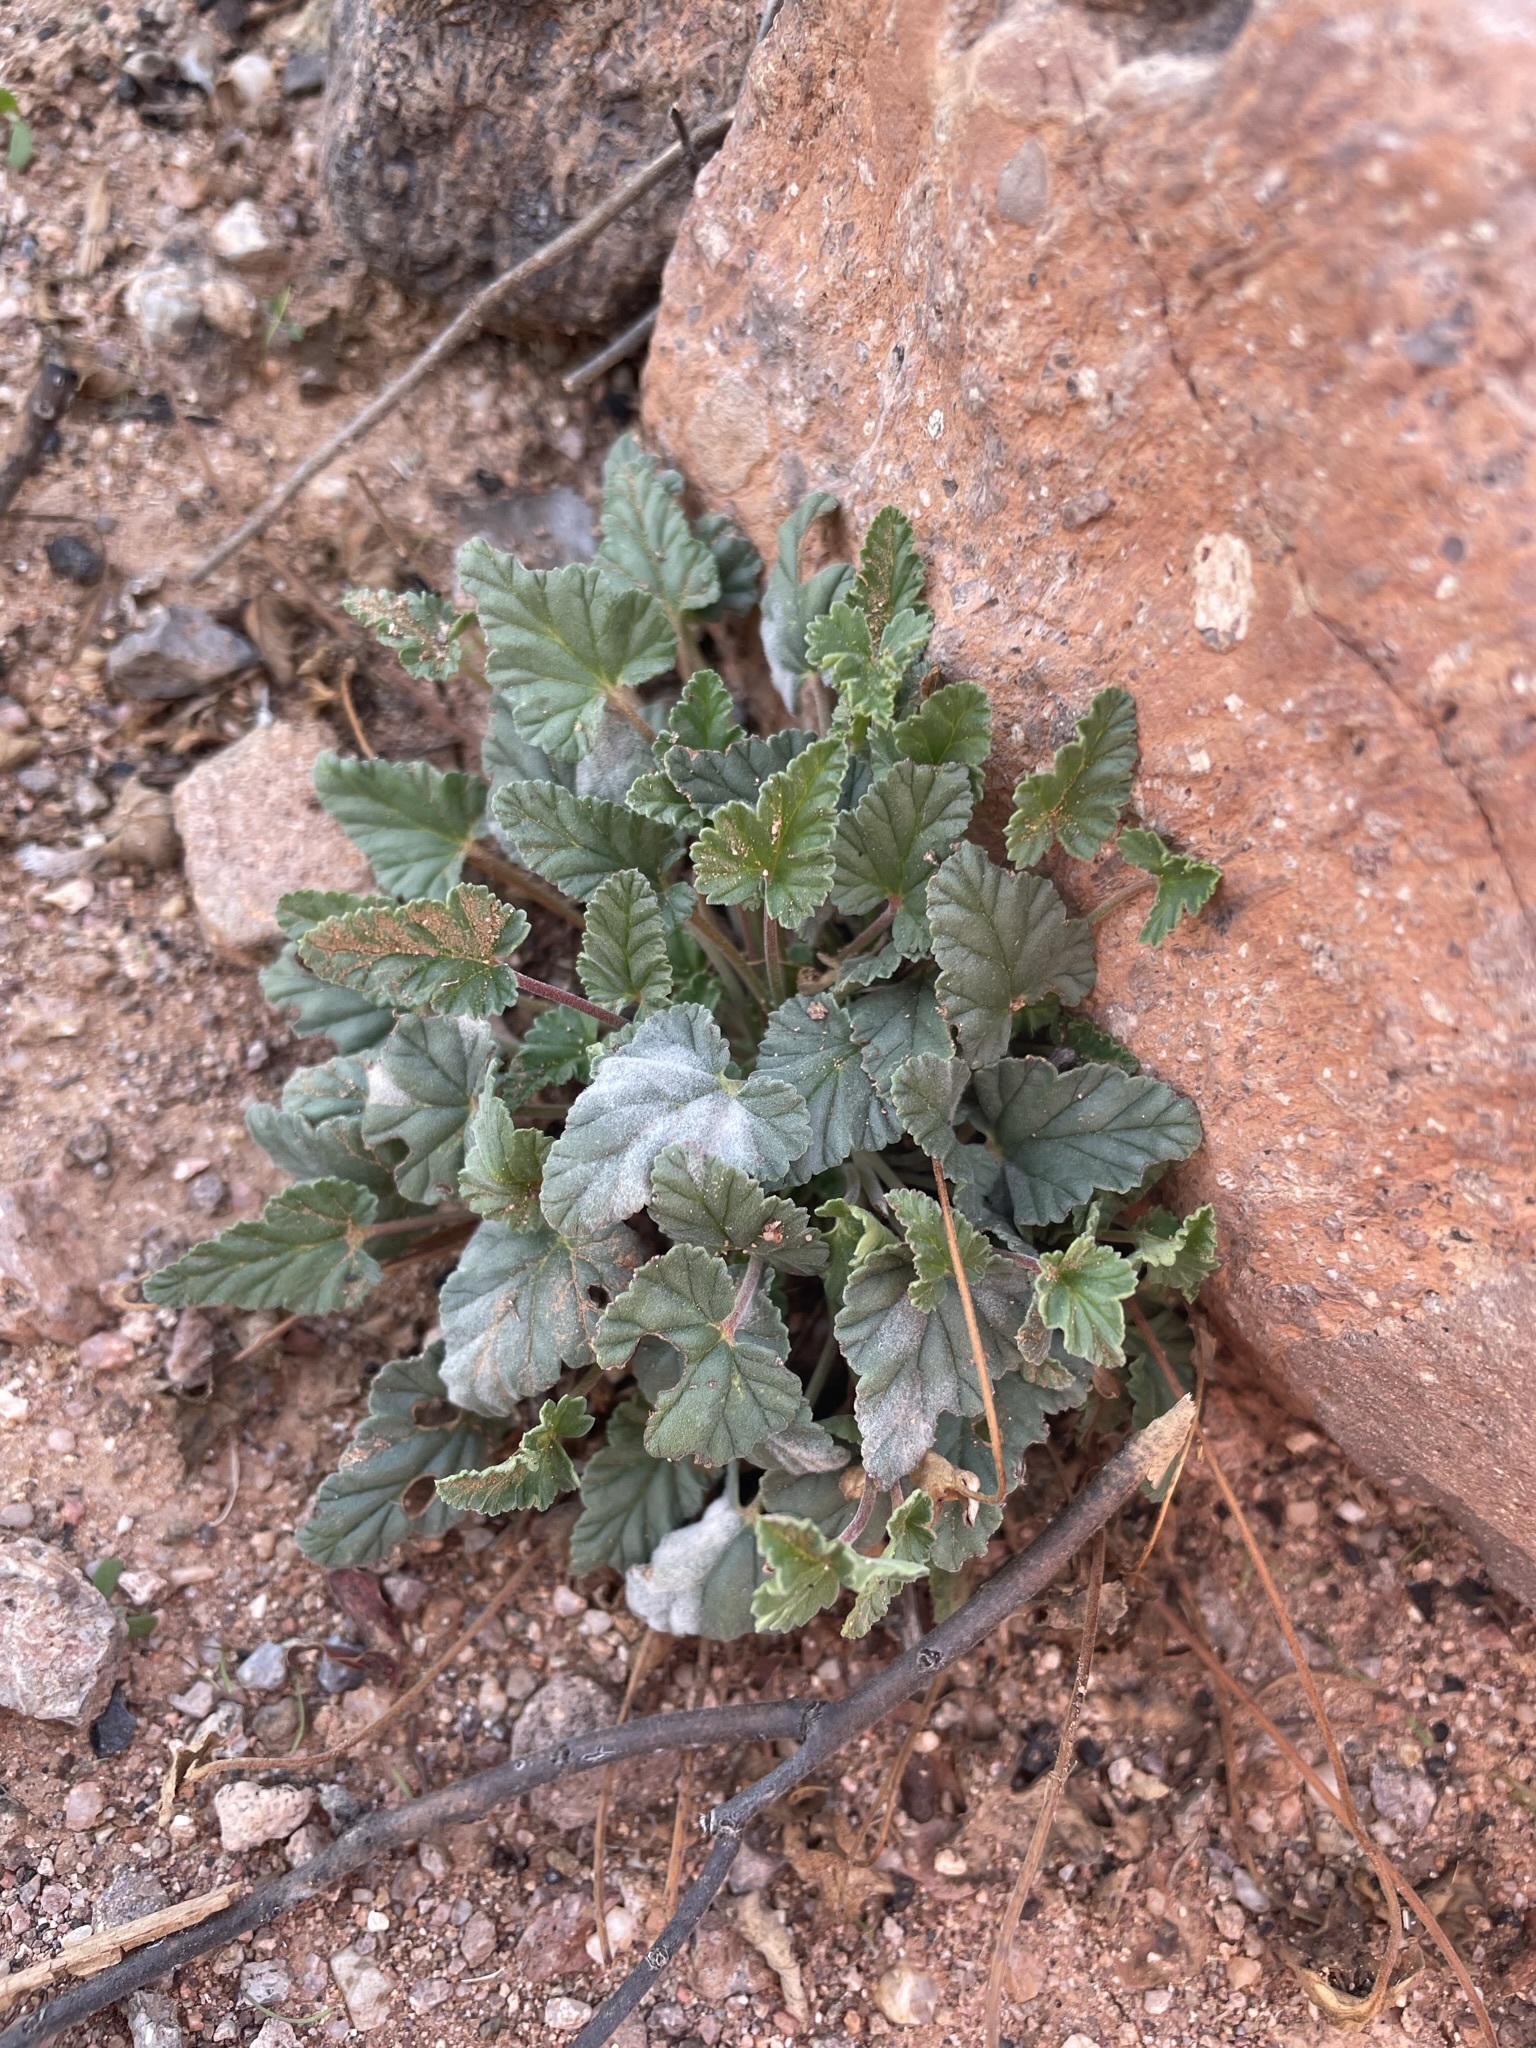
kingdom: Plantae
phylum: Tracheophyta
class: Magnoliopsida
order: Geraniales
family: Geraniaceae
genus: Erodium
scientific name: Erodium texanum
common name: Texas stork's-bill
